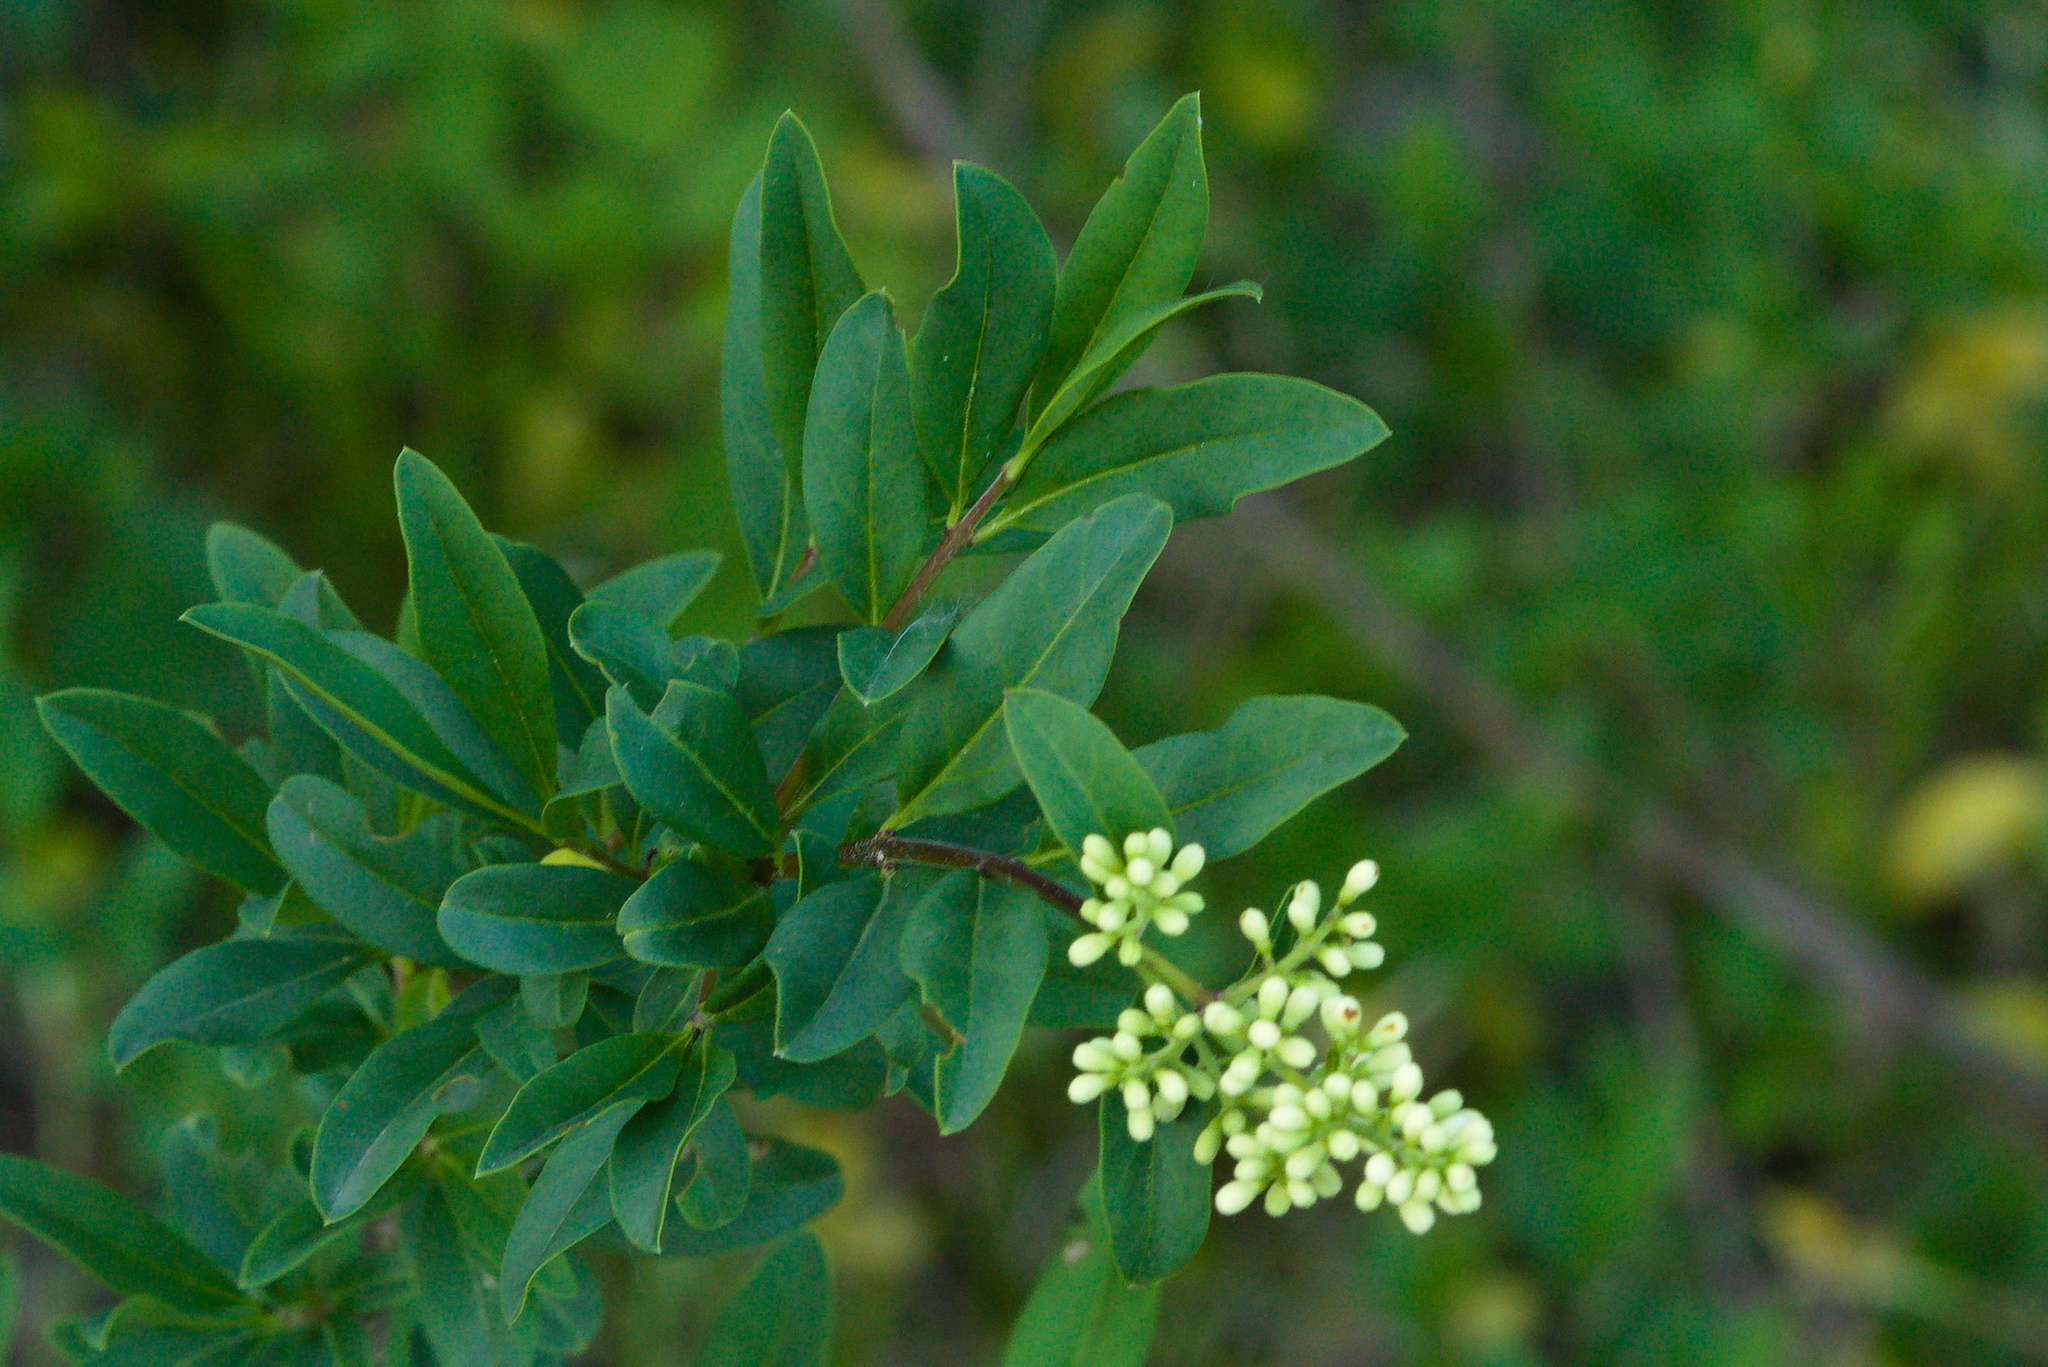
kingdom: Plantae
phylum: Tracheophyta
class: Magnoliopsida
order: Lamiales
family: Oleaceae
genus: Ligustrum
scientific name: Ligustrum vulgare
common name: Wild privet
